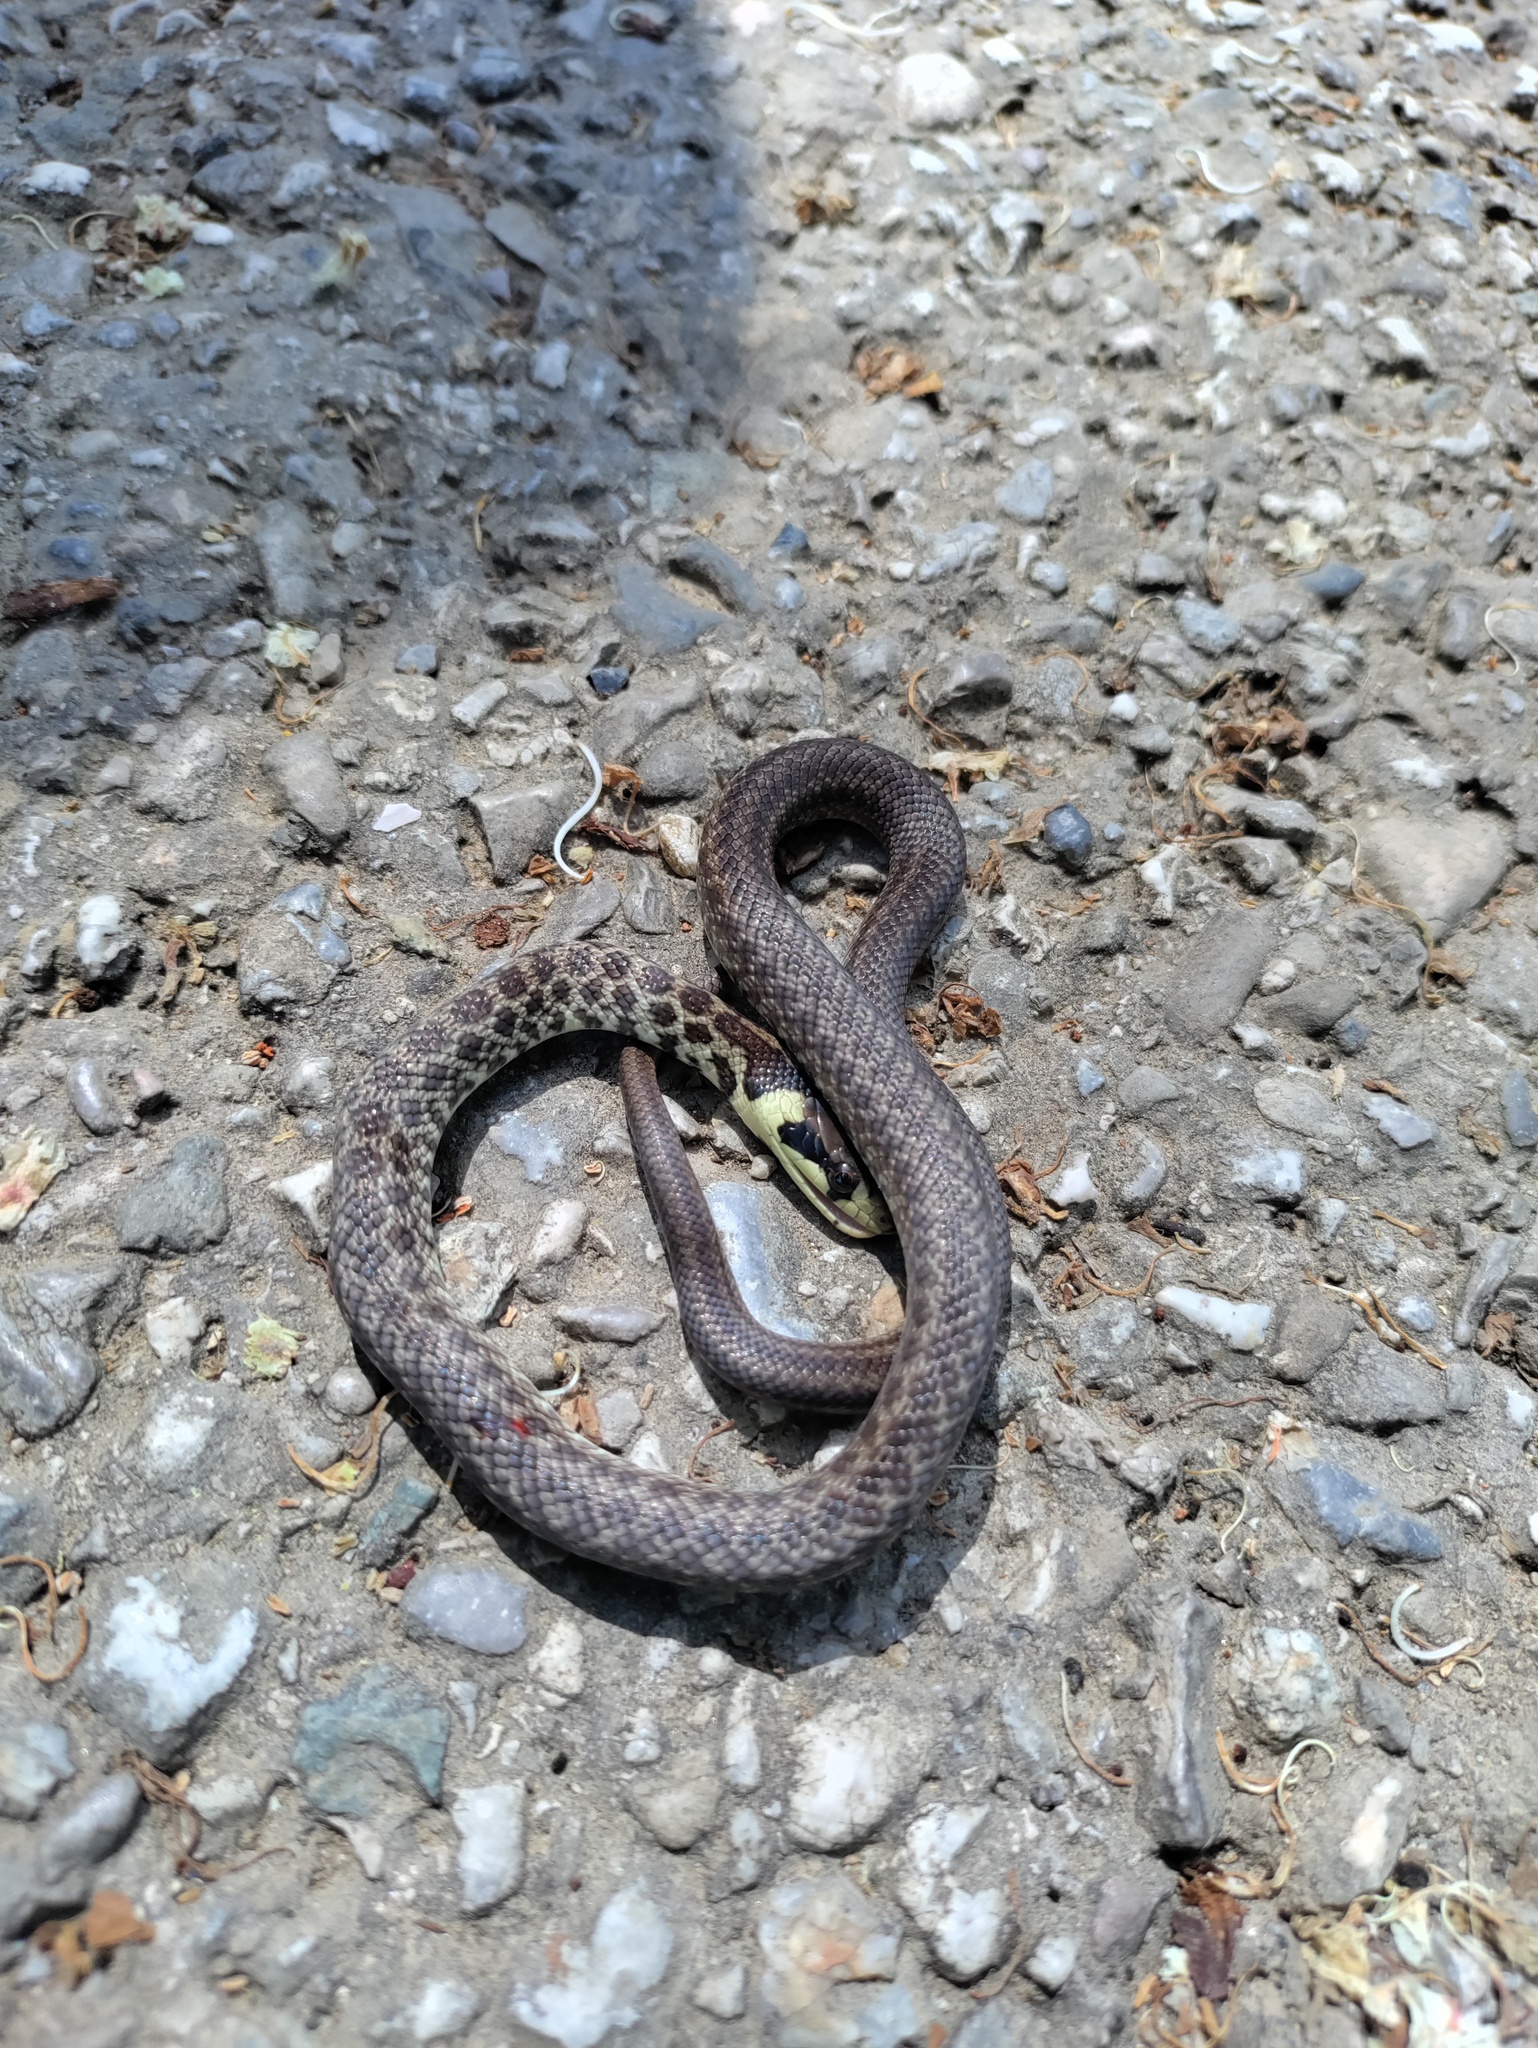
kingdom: Animalia
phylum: Chordata
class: Squamata
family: Colubridae
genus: Zamenis
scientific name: Zamenis longissimus
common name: Aesculapean snake
